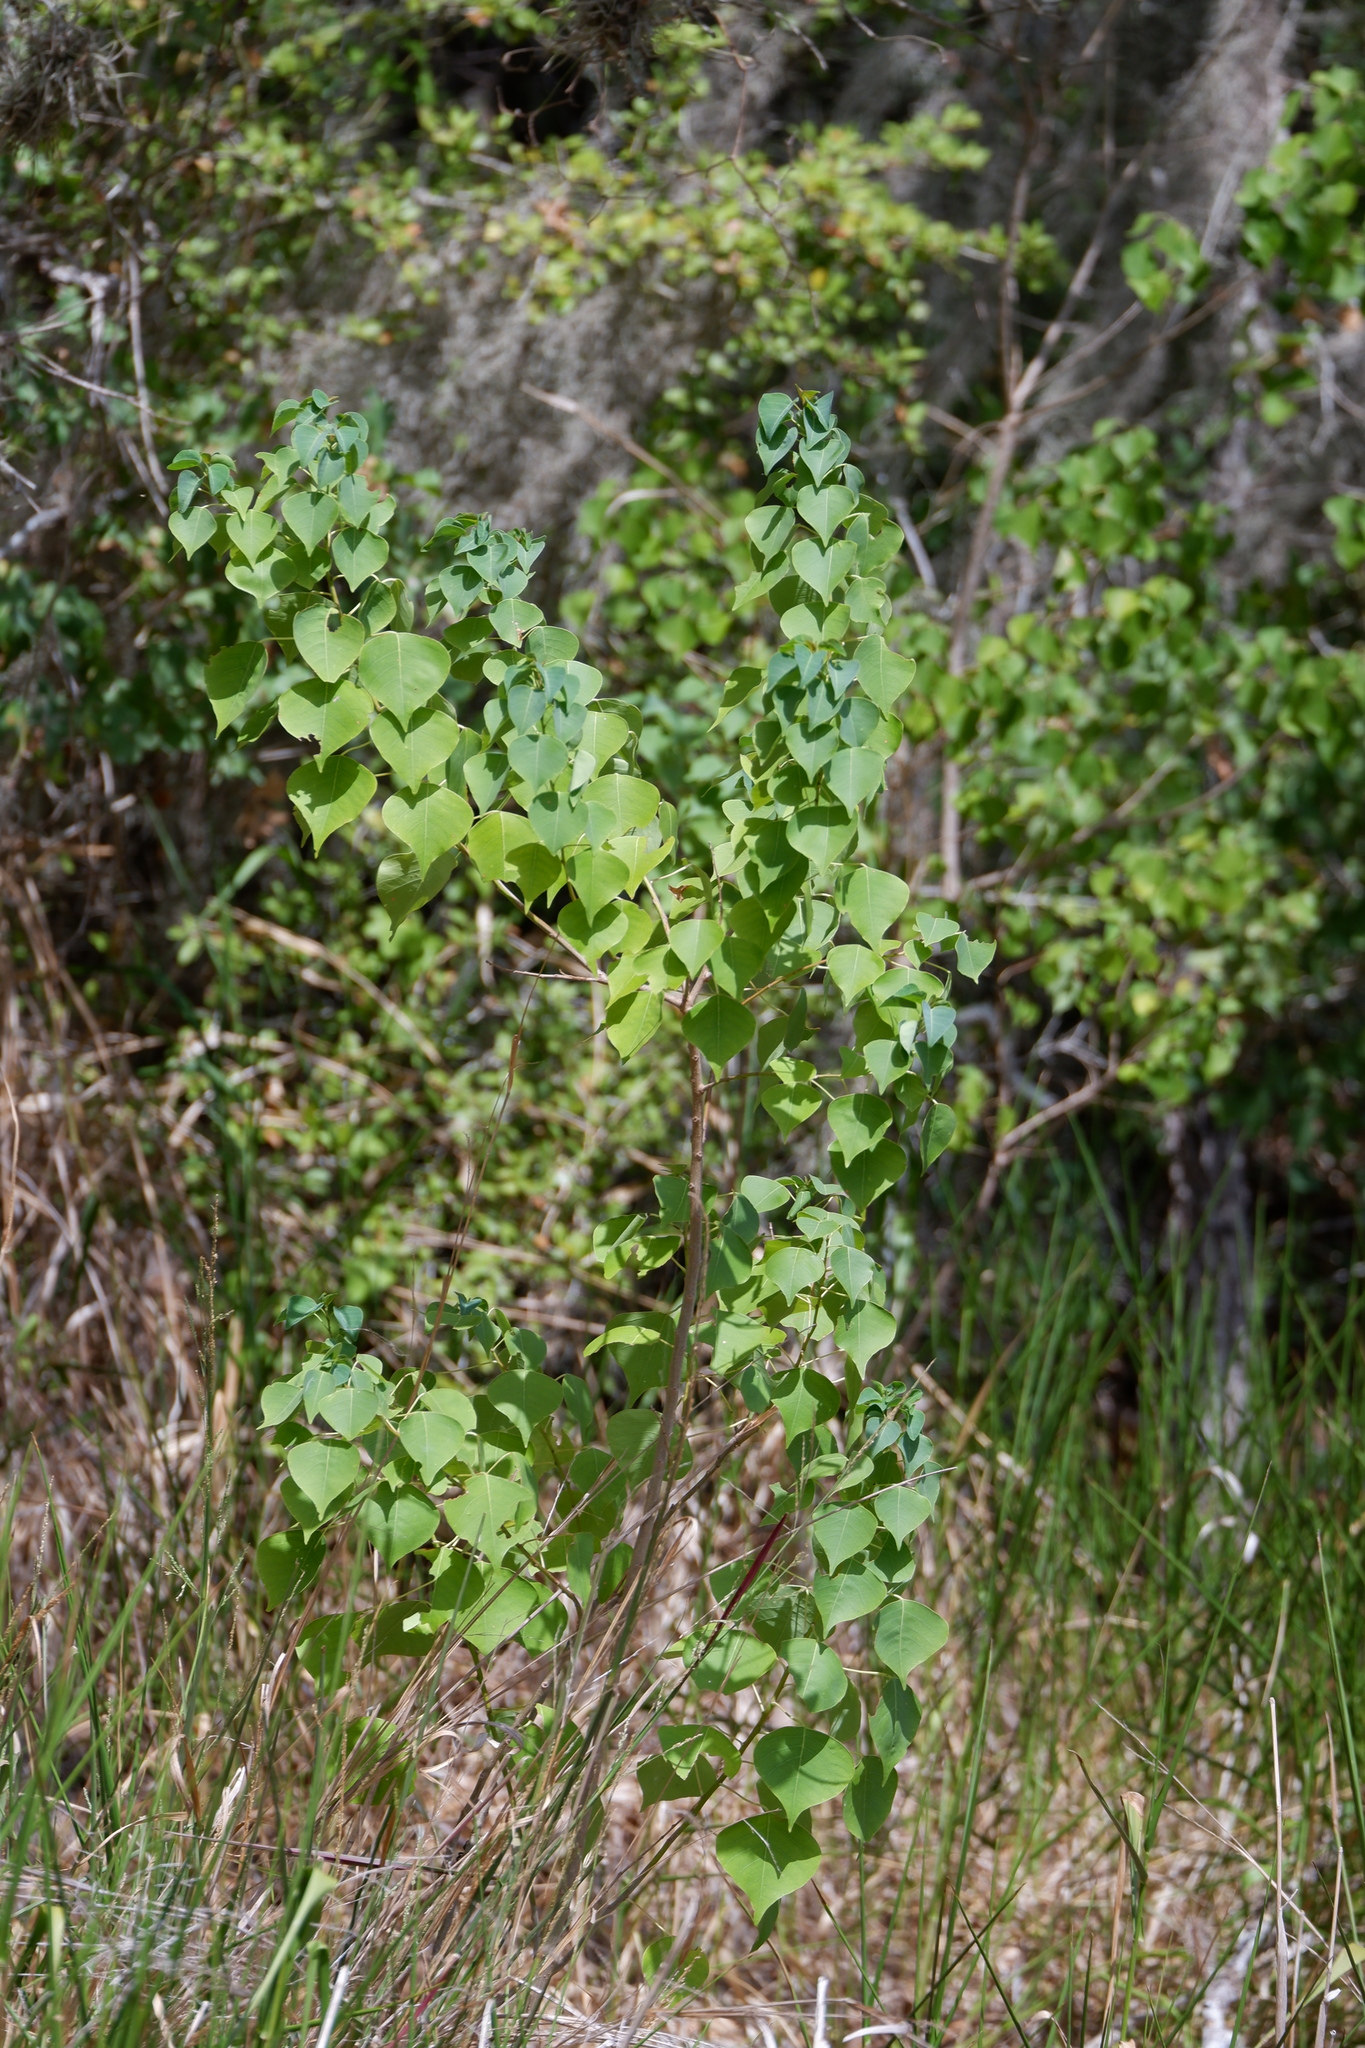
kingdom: Plantae
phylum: Tracheophyta
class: Magnoliopsida
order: Malpighiales
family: Euphorbiaceae
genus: Triadica
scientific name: Triadica sebifera
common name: Chinese tallow
